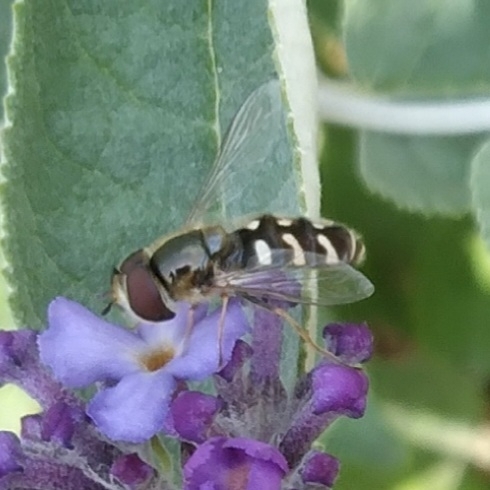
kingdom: Animalia
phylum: Arthropoda
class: Insecta
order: Diptera
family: Syrphidae
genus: Scaeva
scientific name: Scaeva pyrastri
